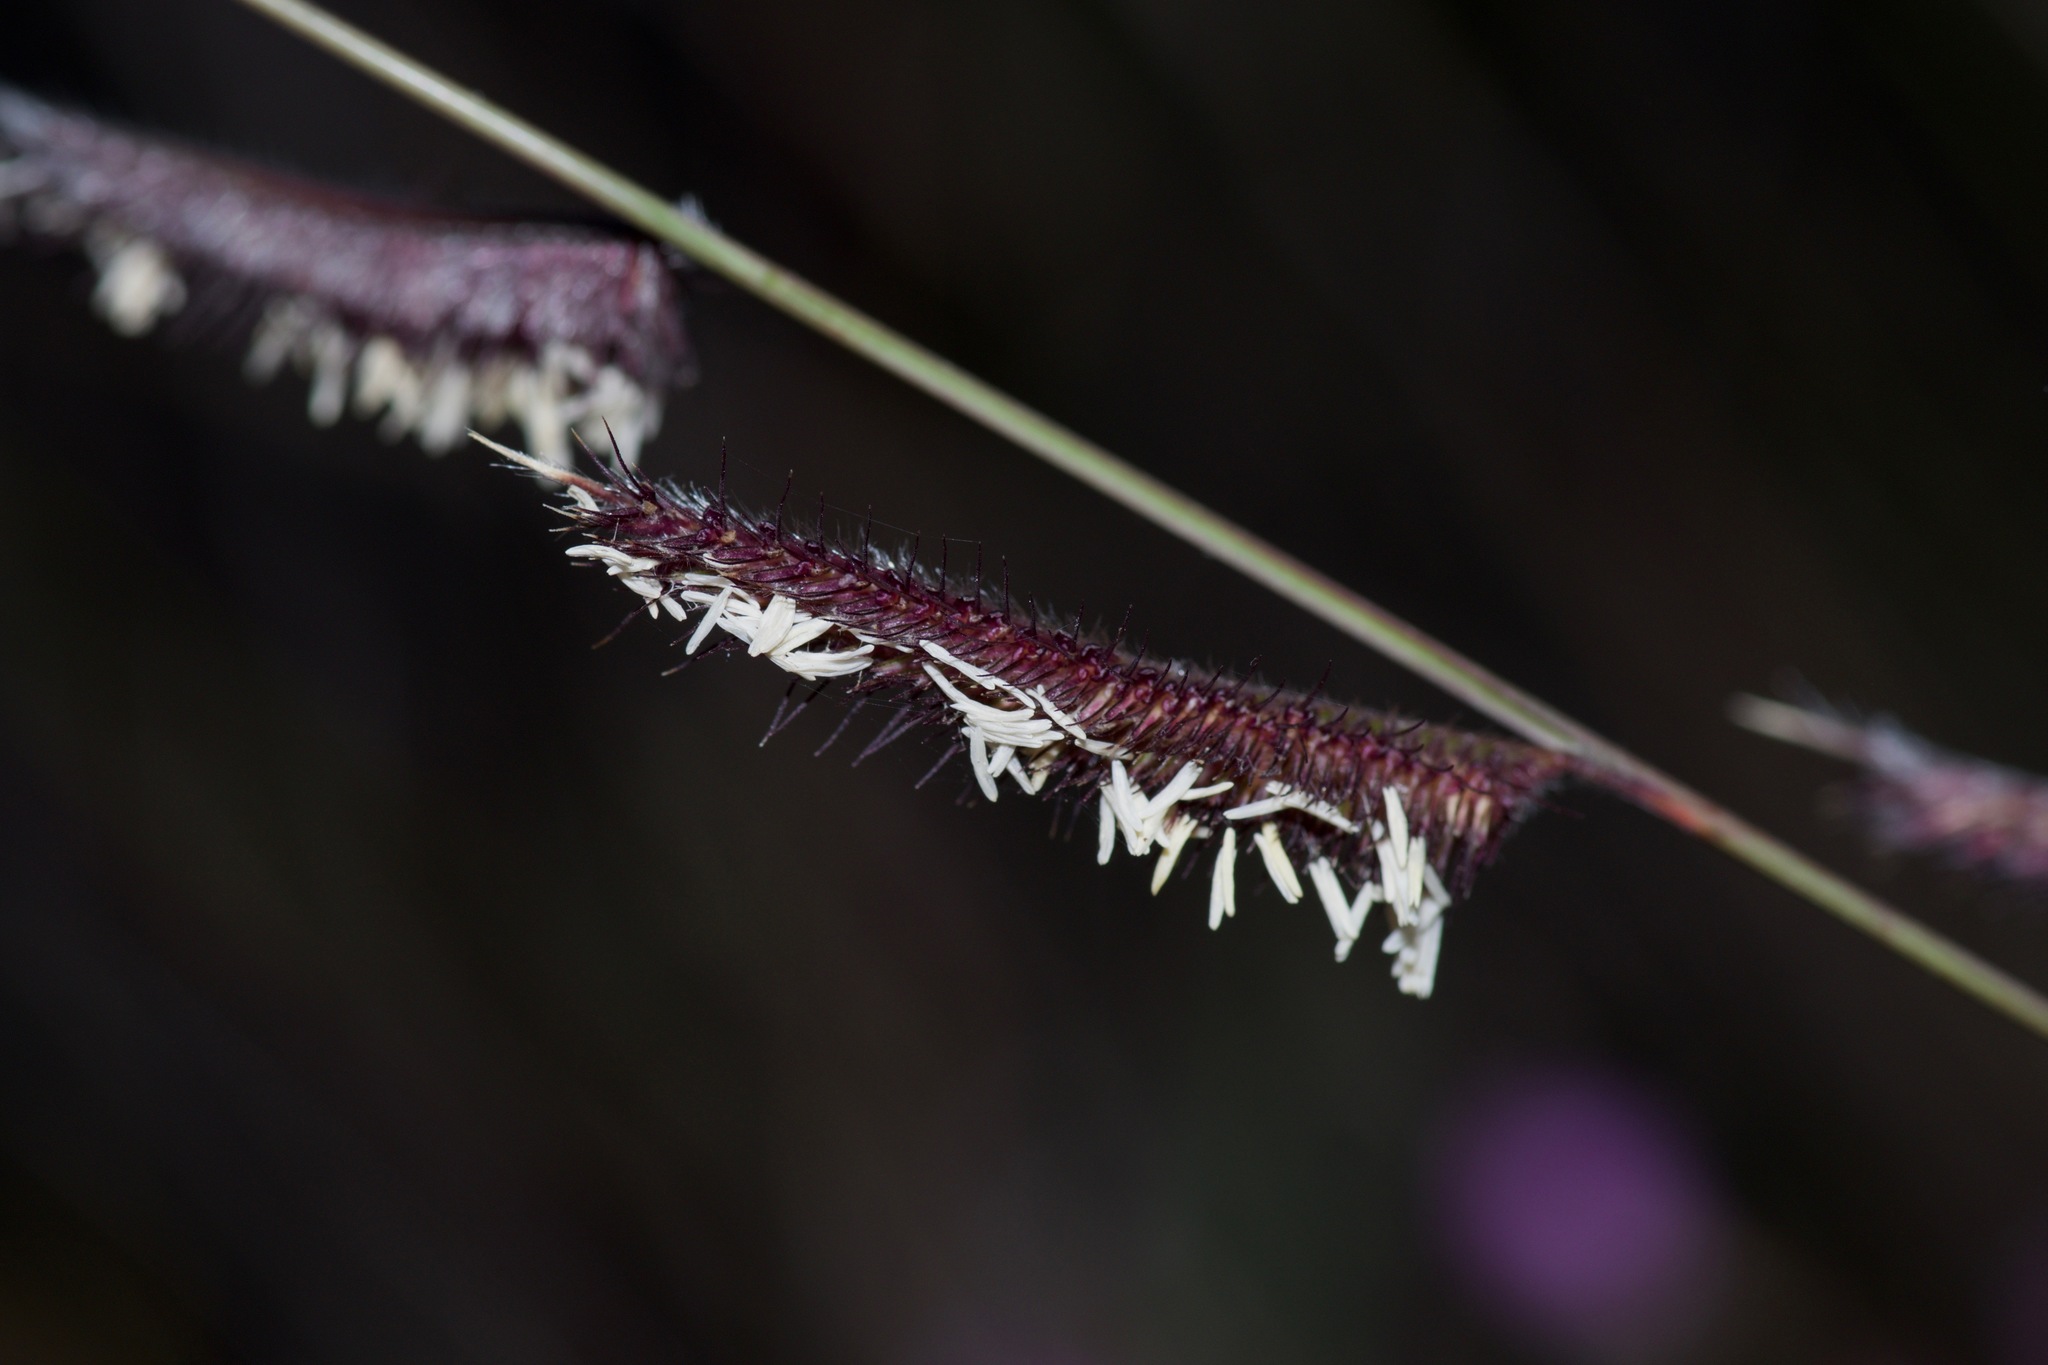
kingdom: Plantae
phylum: Tracheophyta
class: Liliopsida
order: Poales
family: Poaceae
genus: Bouteloua
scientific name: Bouteloua hirsuta
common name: Hairy grama
